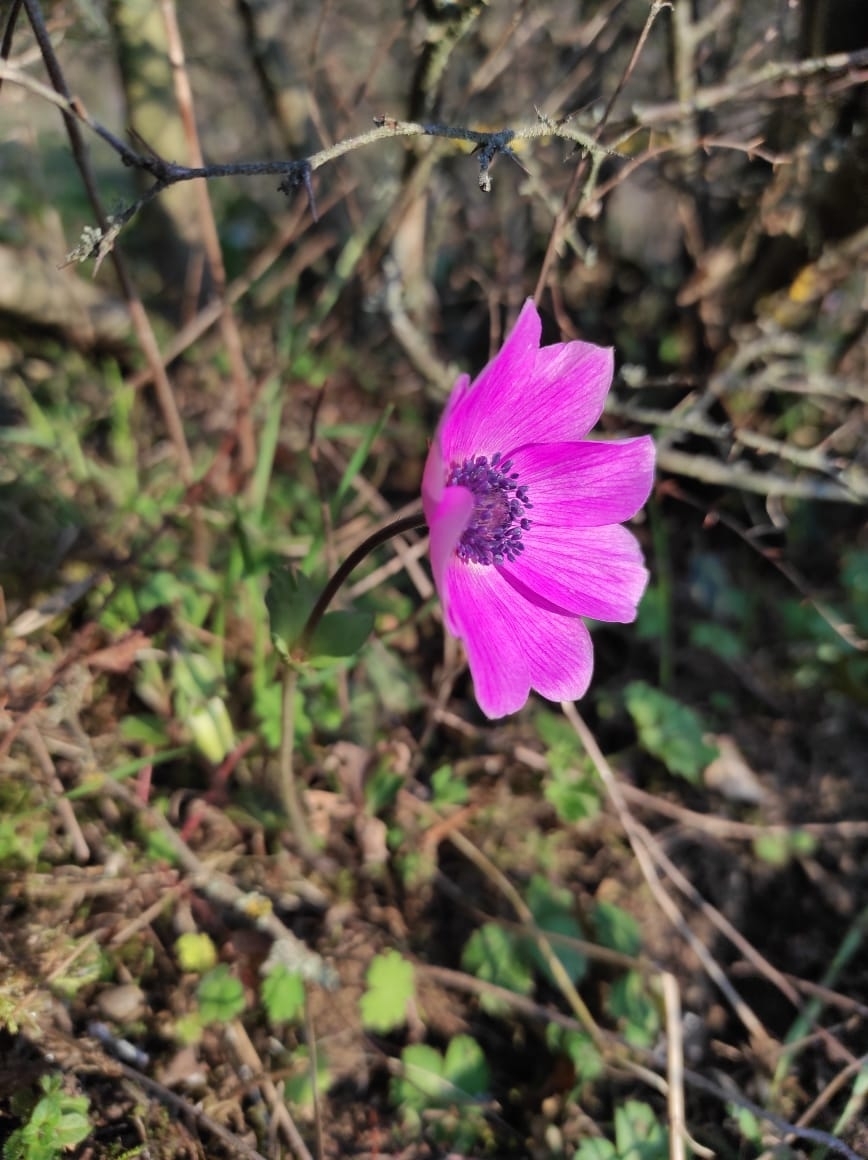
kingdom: Plantae
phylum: Tracheophyta
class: Magnoliopsida
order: Ranunculales
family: Ranunculaceae
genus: Anemone
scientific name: Anemone pavonina
